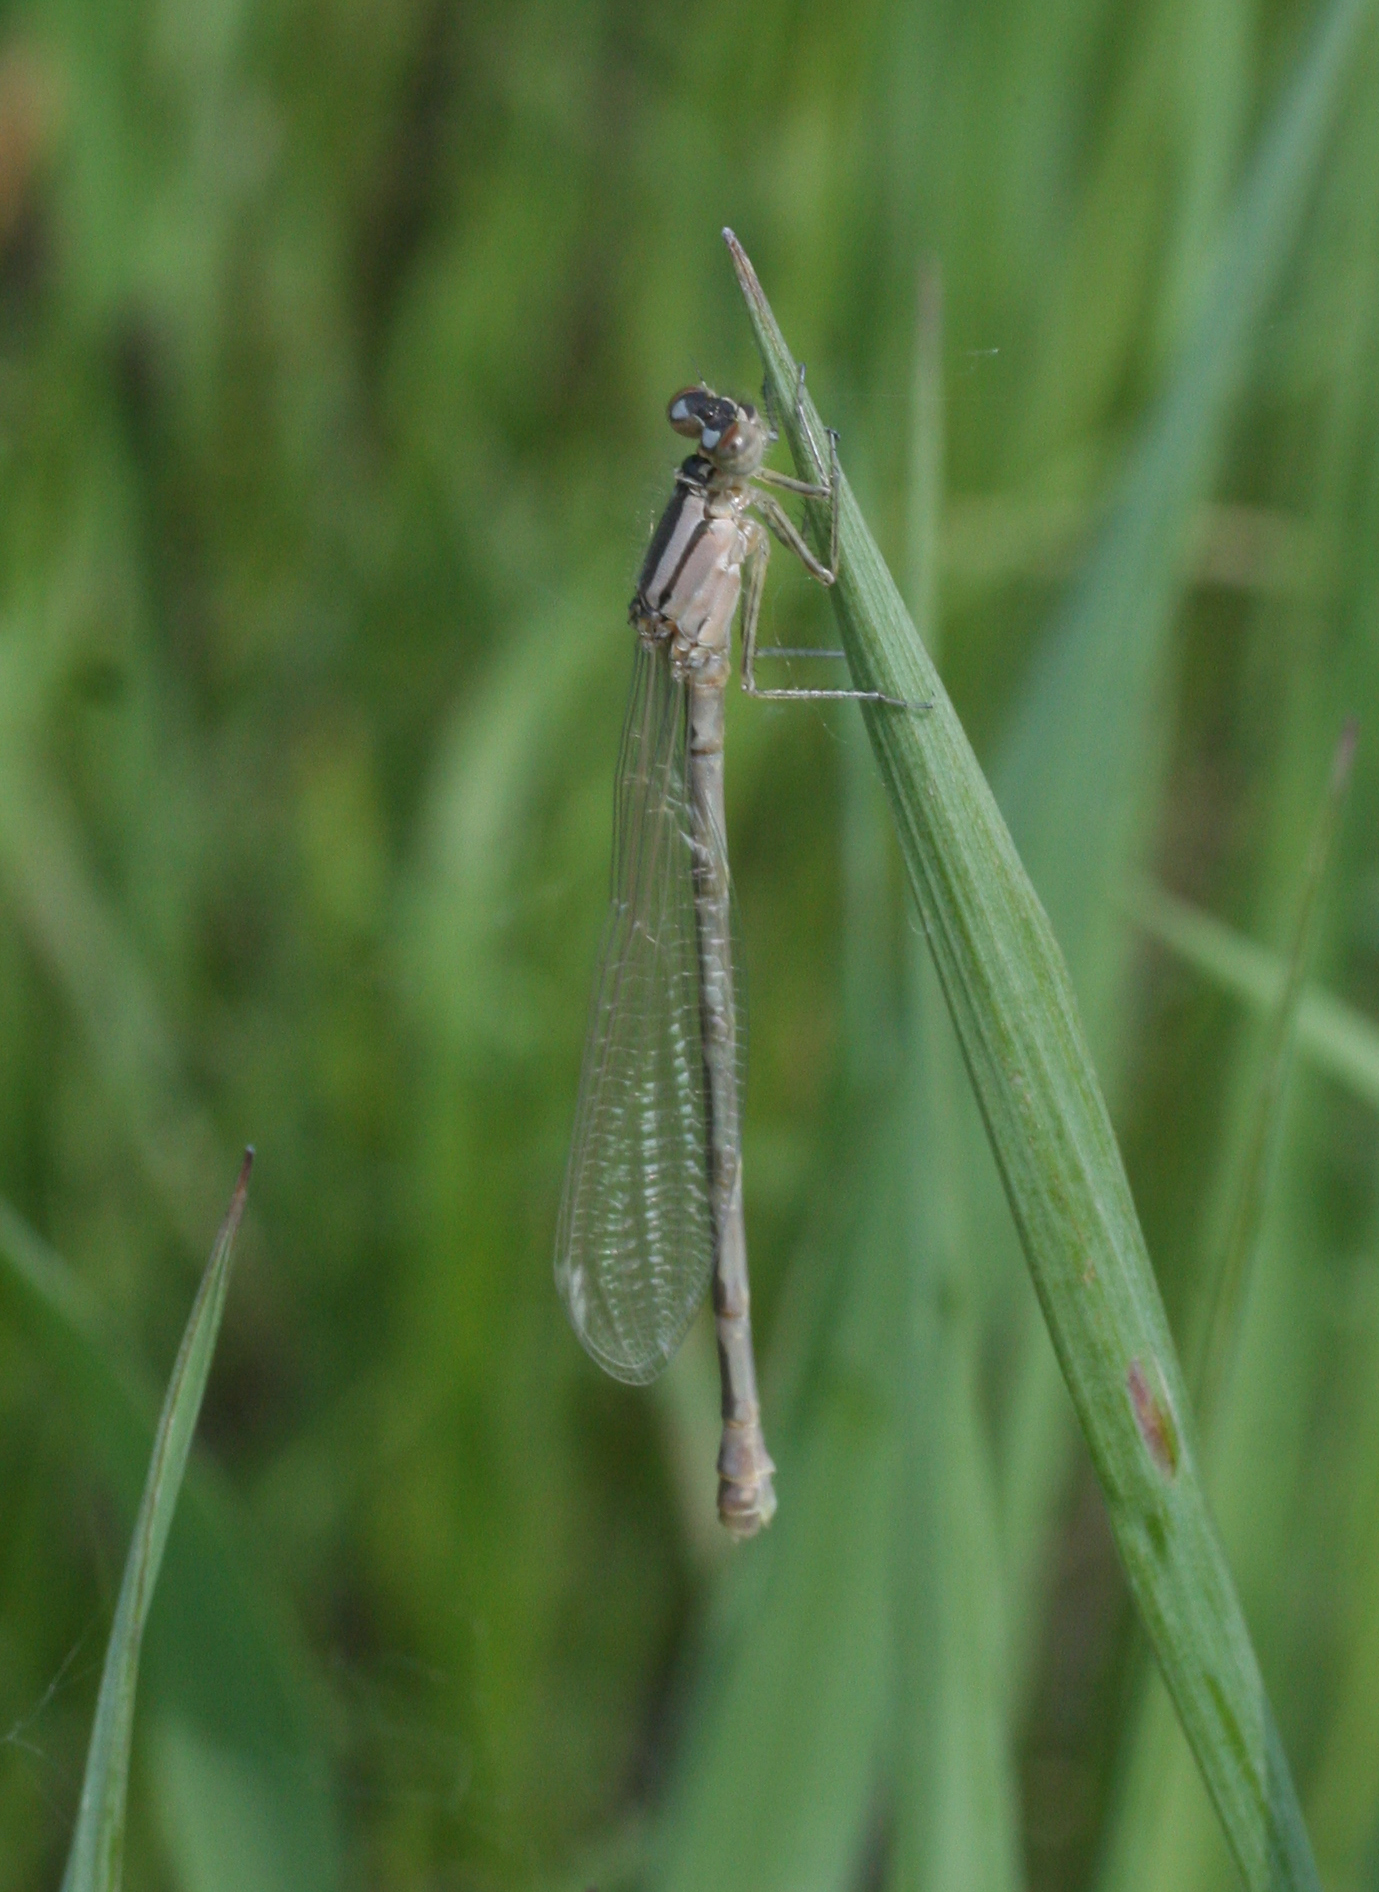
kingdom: Animalia
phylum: Arthropoda
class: Insecta
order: Odonata
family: Coenagrionidae
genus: Enallagma
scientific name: Enallagma cyathigerum
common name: Common blue damselfly
